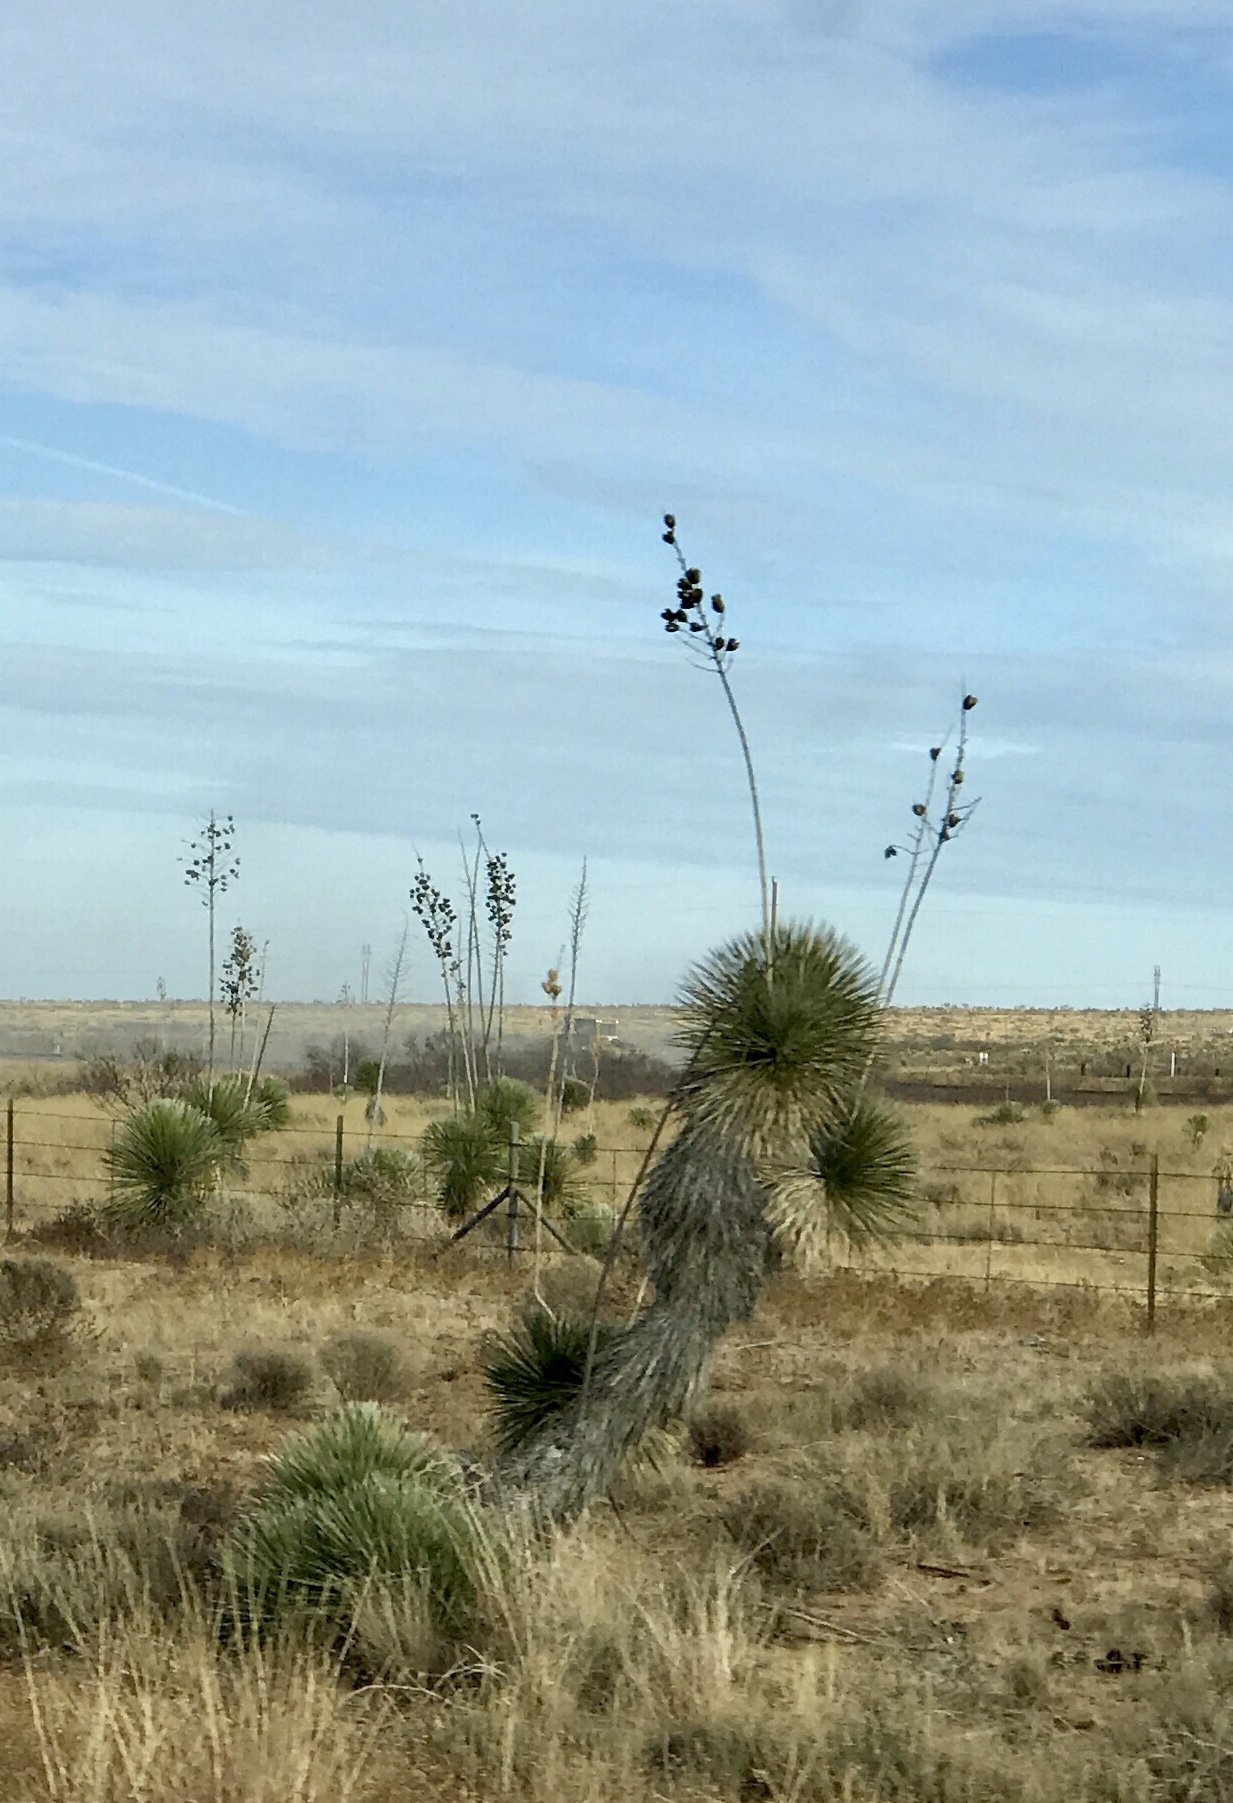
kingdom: Plantae
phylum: Tracheophyta
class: Liliopsida
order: Asparagales
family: Asparagaceae
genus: Yucca
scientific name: Yucca elata
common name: Palmella
